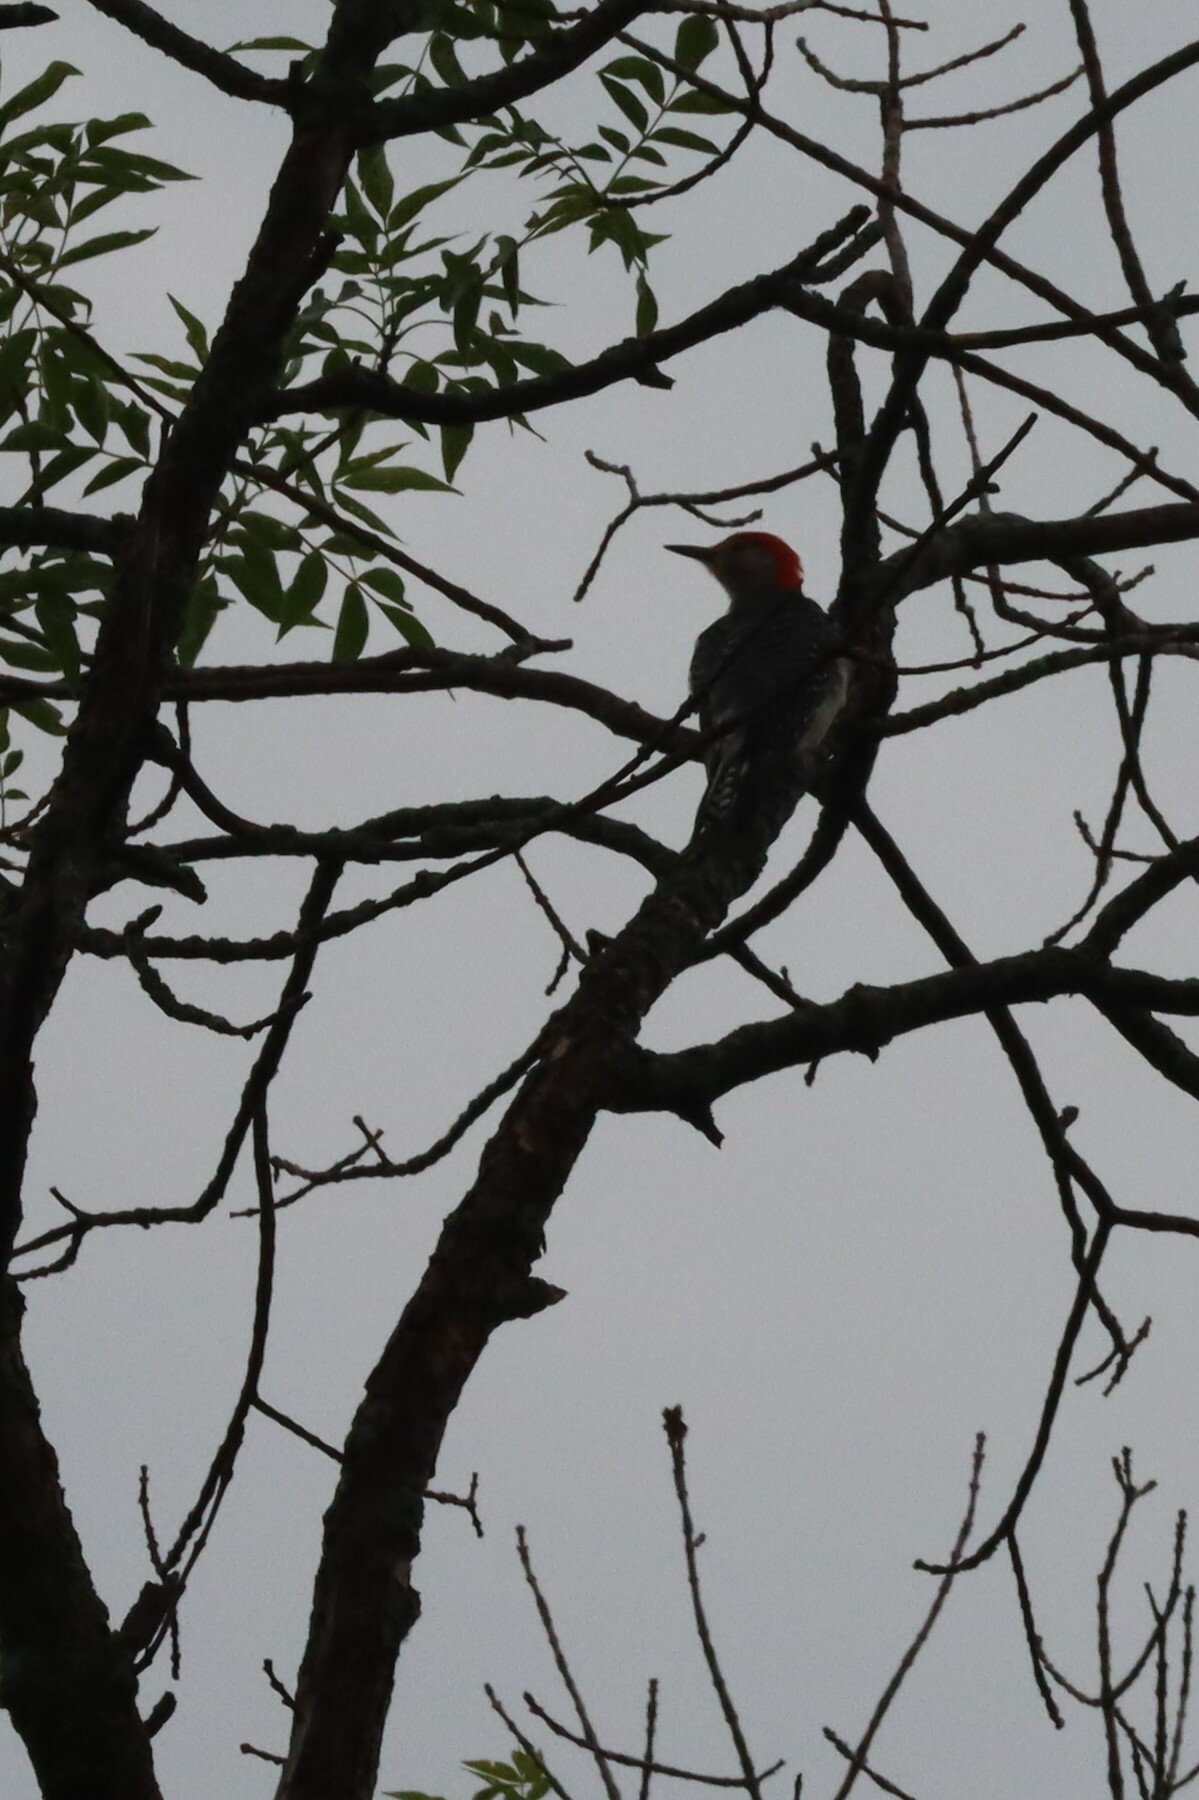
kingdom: Animalia
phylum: Chordata
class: Aves
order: Piciformes
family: Picidae
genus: Melanerpes
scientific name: Melanerpes carolinus
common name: Red-bellied woodpecker
